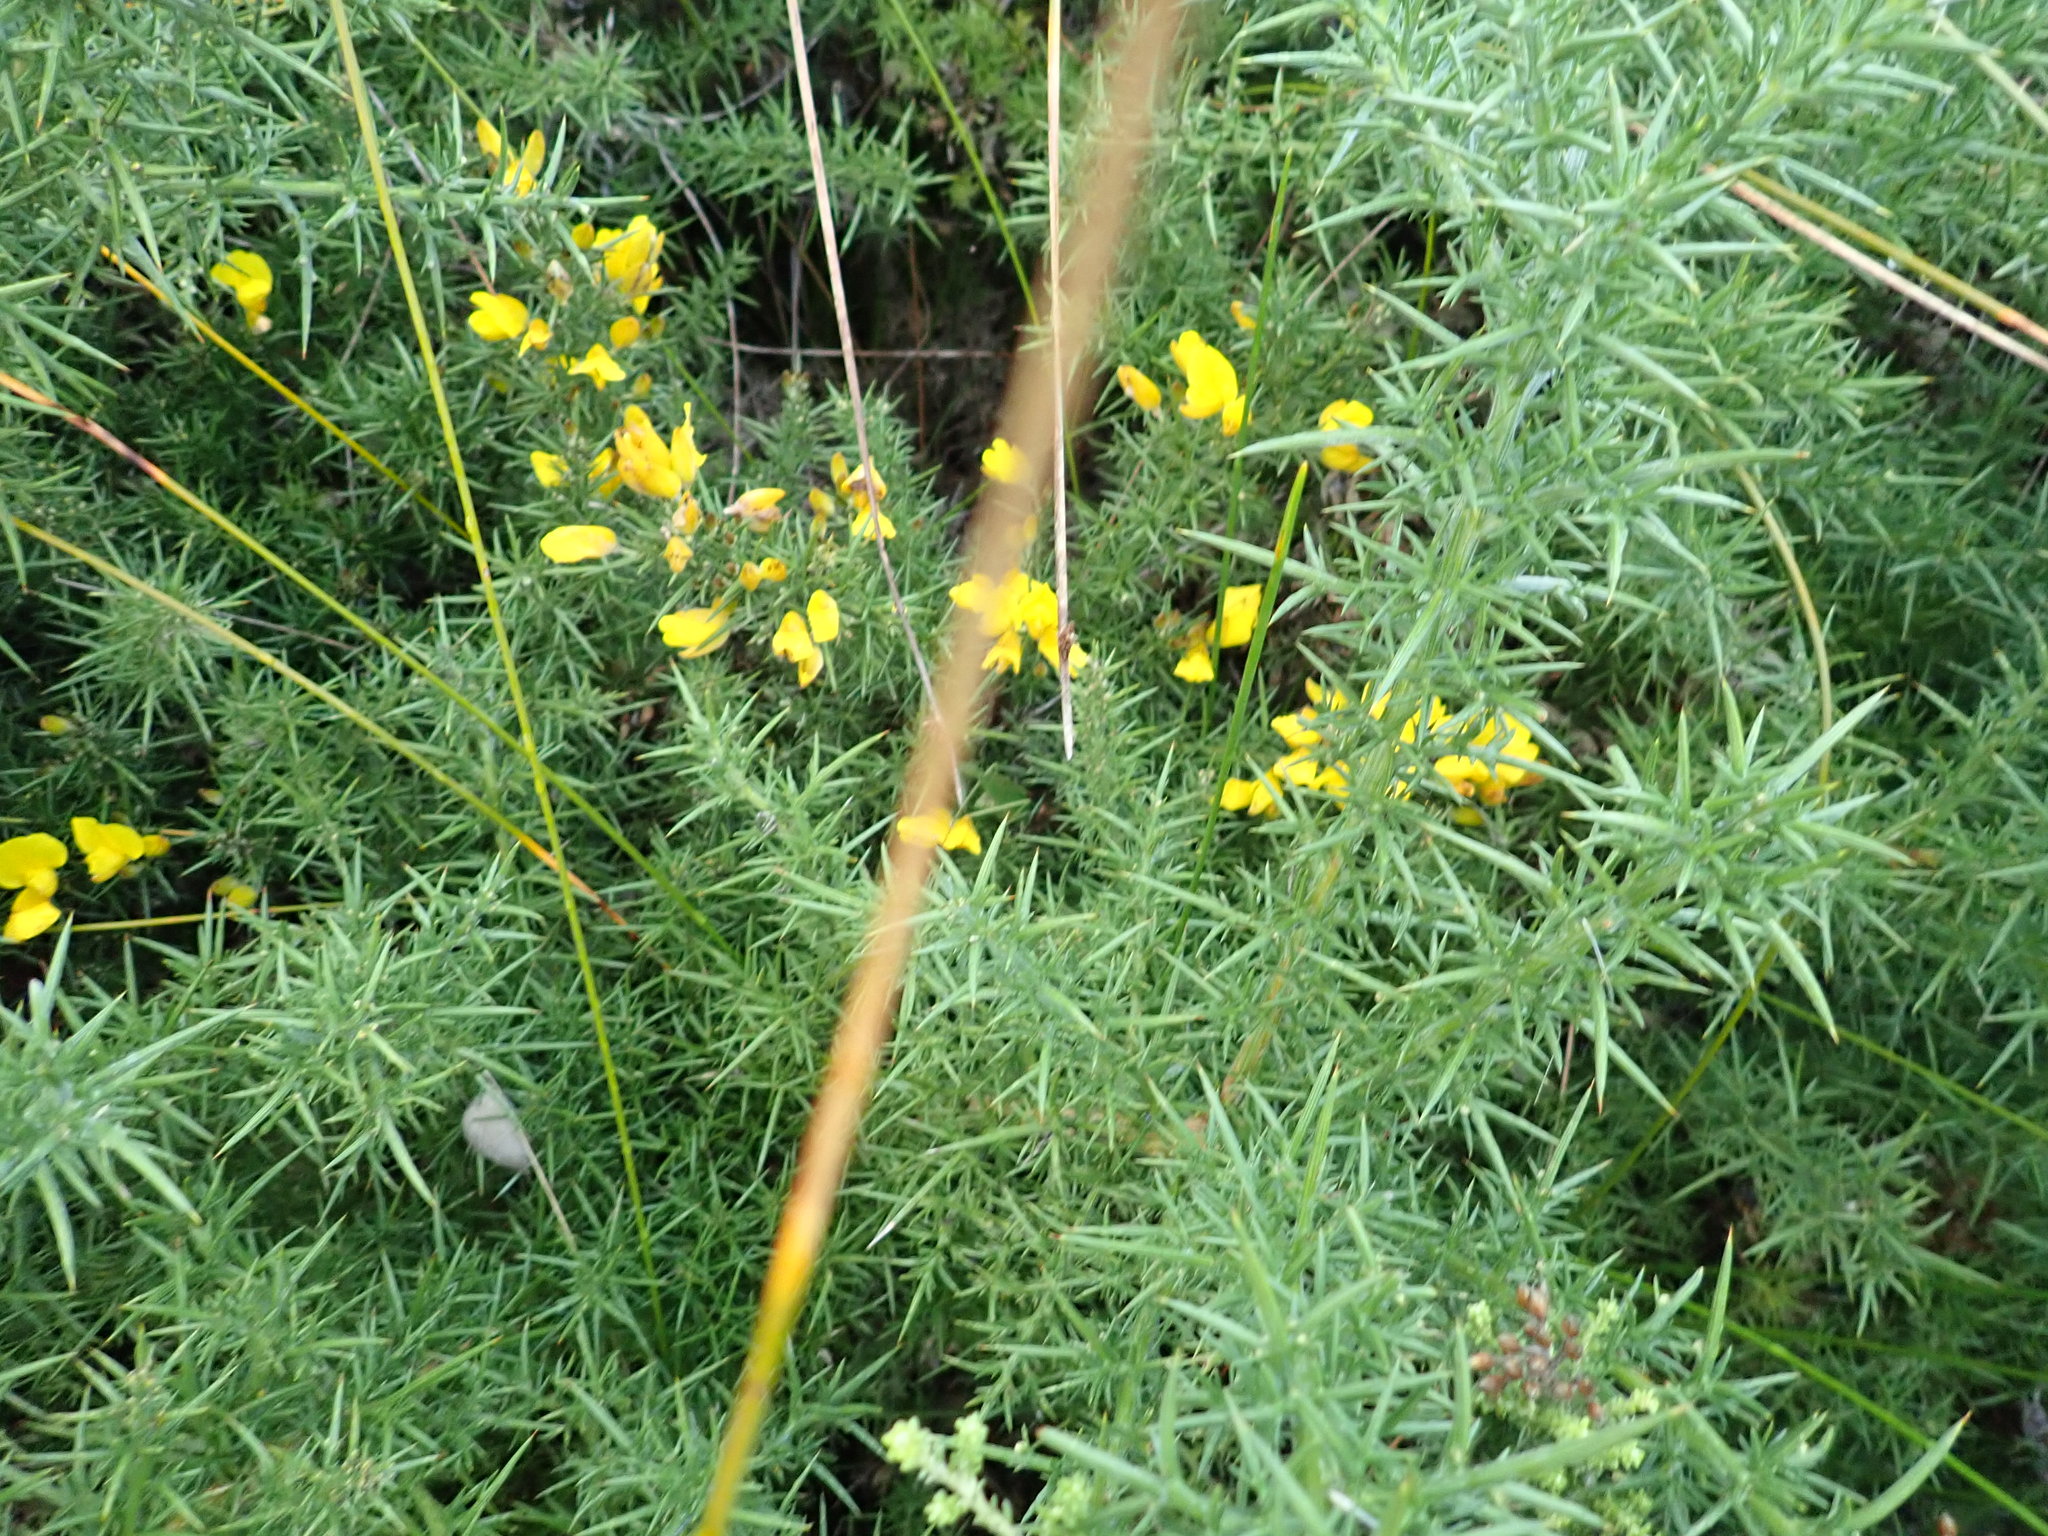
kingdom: Plantae
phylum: Tracheophyta
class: Magnoliopsida
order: Fabales
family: Fabaceae
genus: Ulex
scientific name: Ulex europaeus
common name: Common gorse
